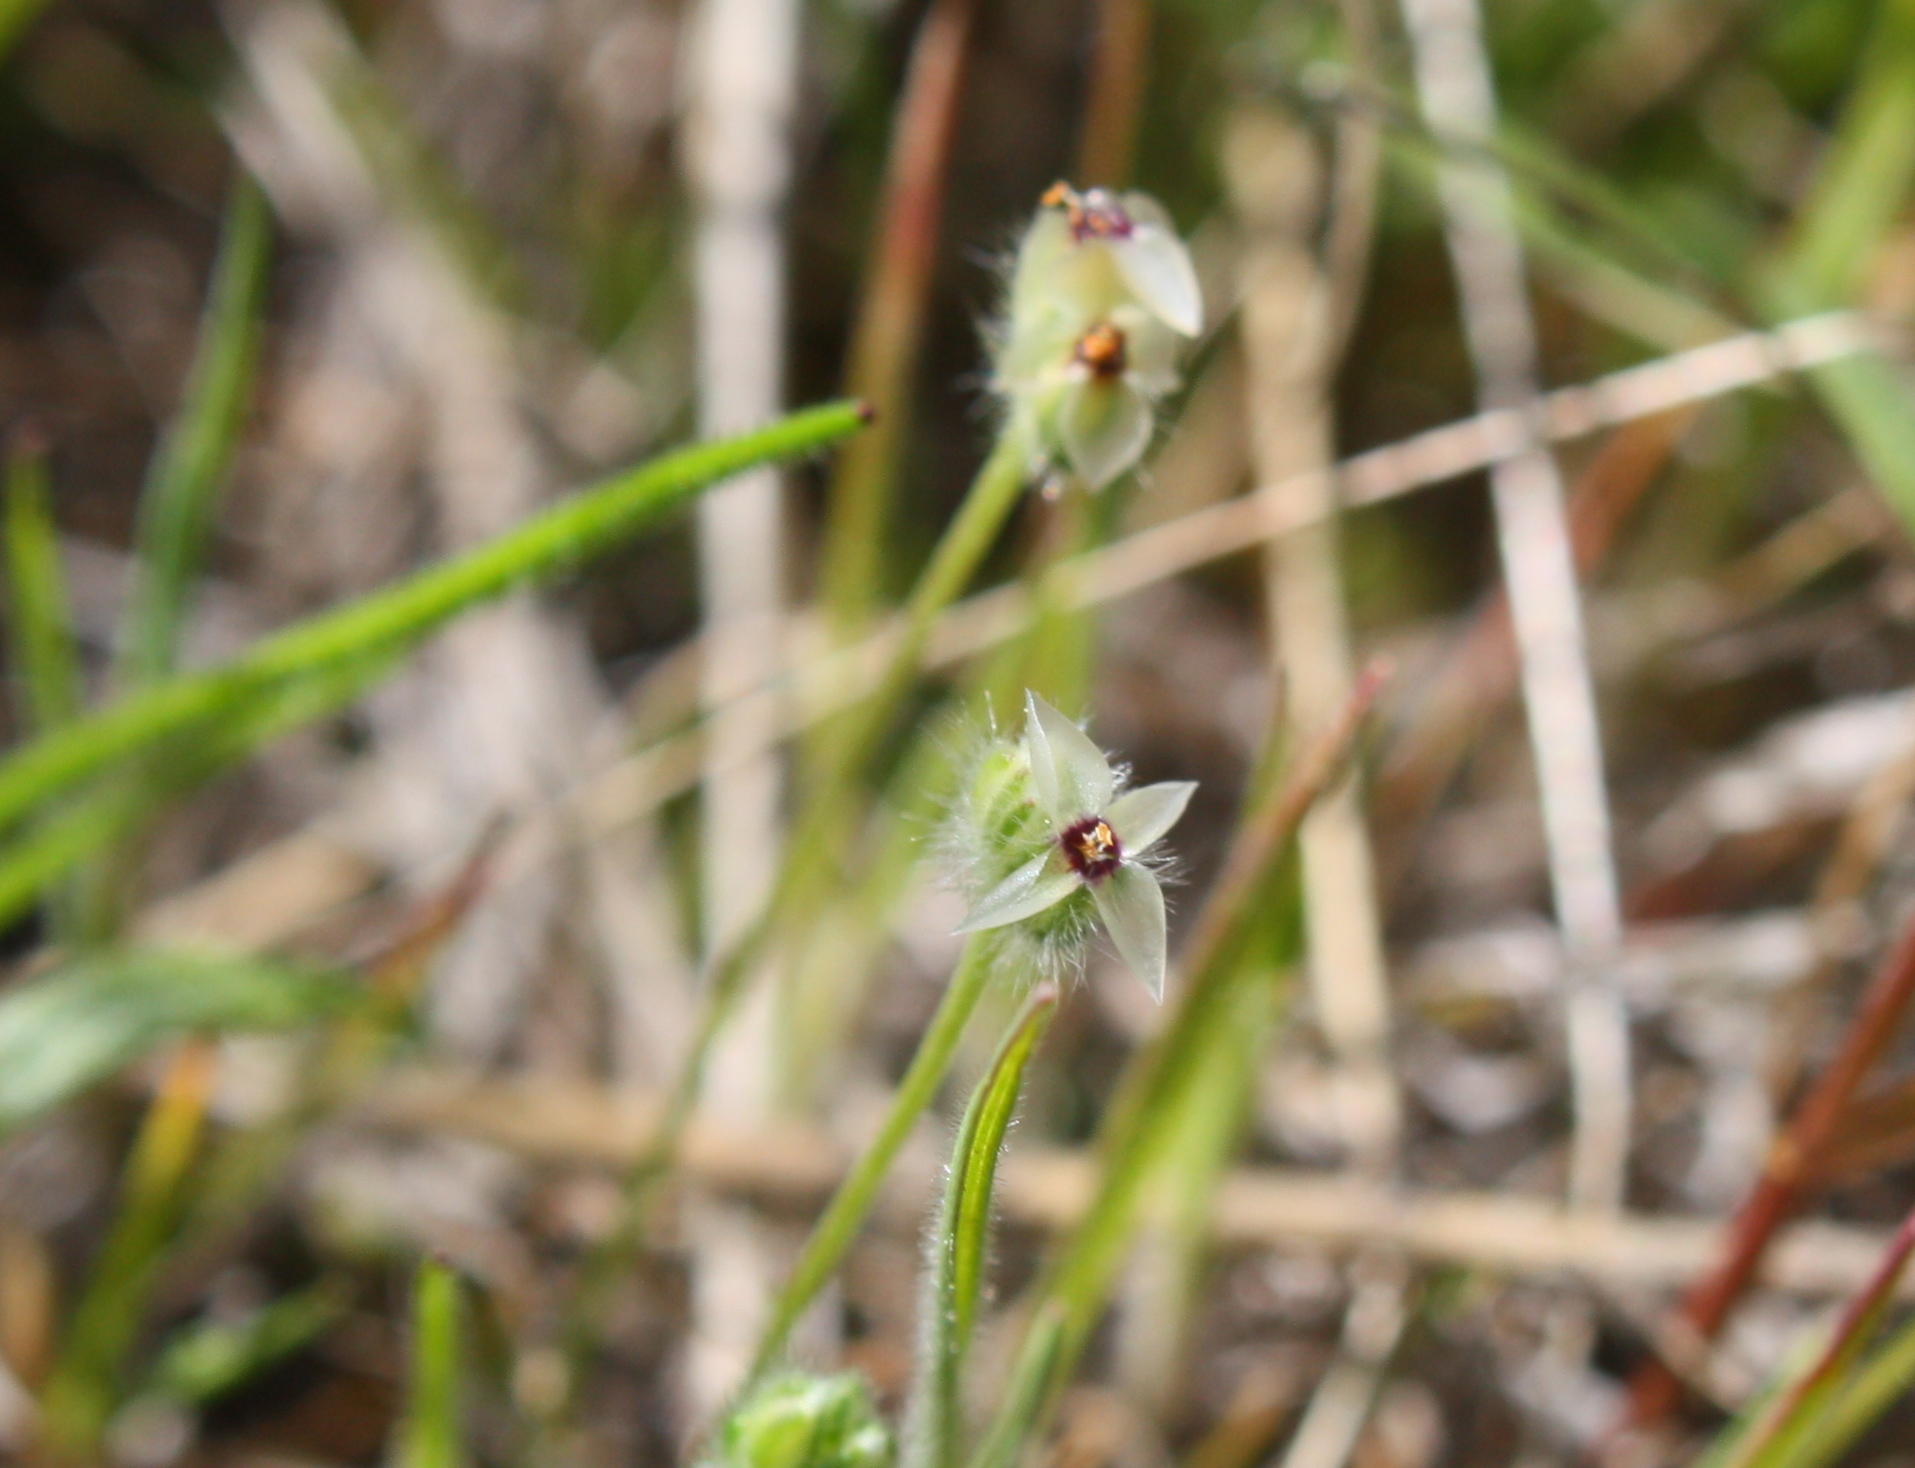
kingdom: Plantae
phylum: Tracheophyta
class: Magnoliopsida
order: Lamiales
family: Plantaginaceae
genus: Plantago
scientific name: Plantago erecta
